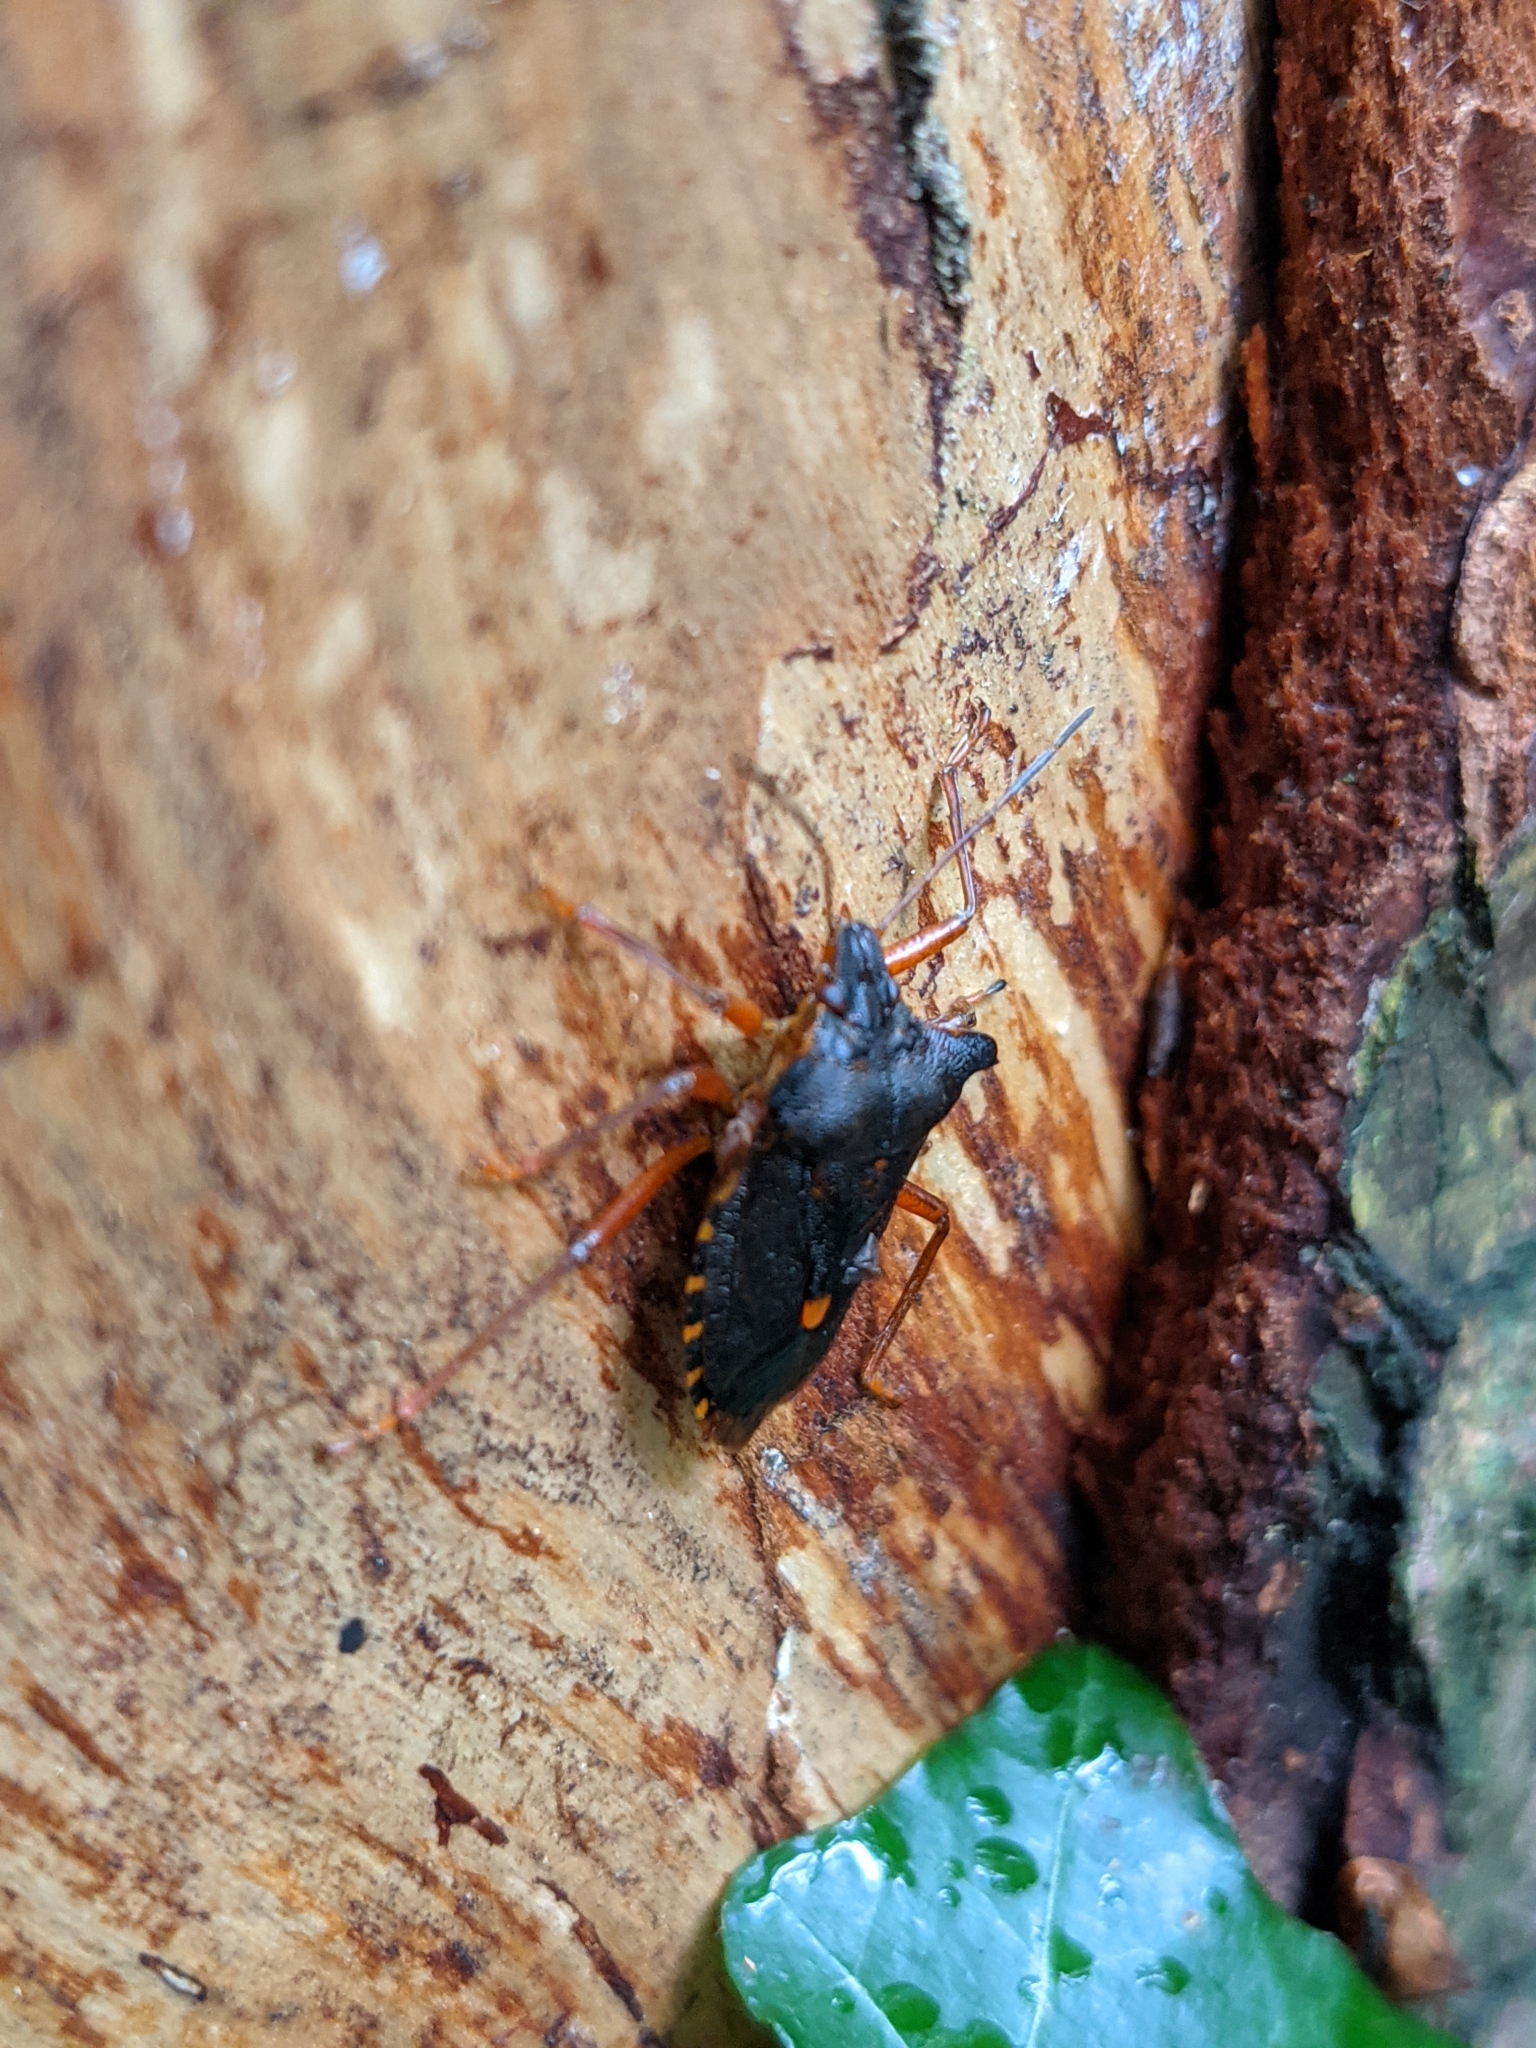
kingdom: Animalia
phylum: Arthropoda
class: Insecta
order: Hemiptera
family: Pentatomidae
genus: Pentatoma
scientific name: Pentatoma rufipes
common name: Forest bug
